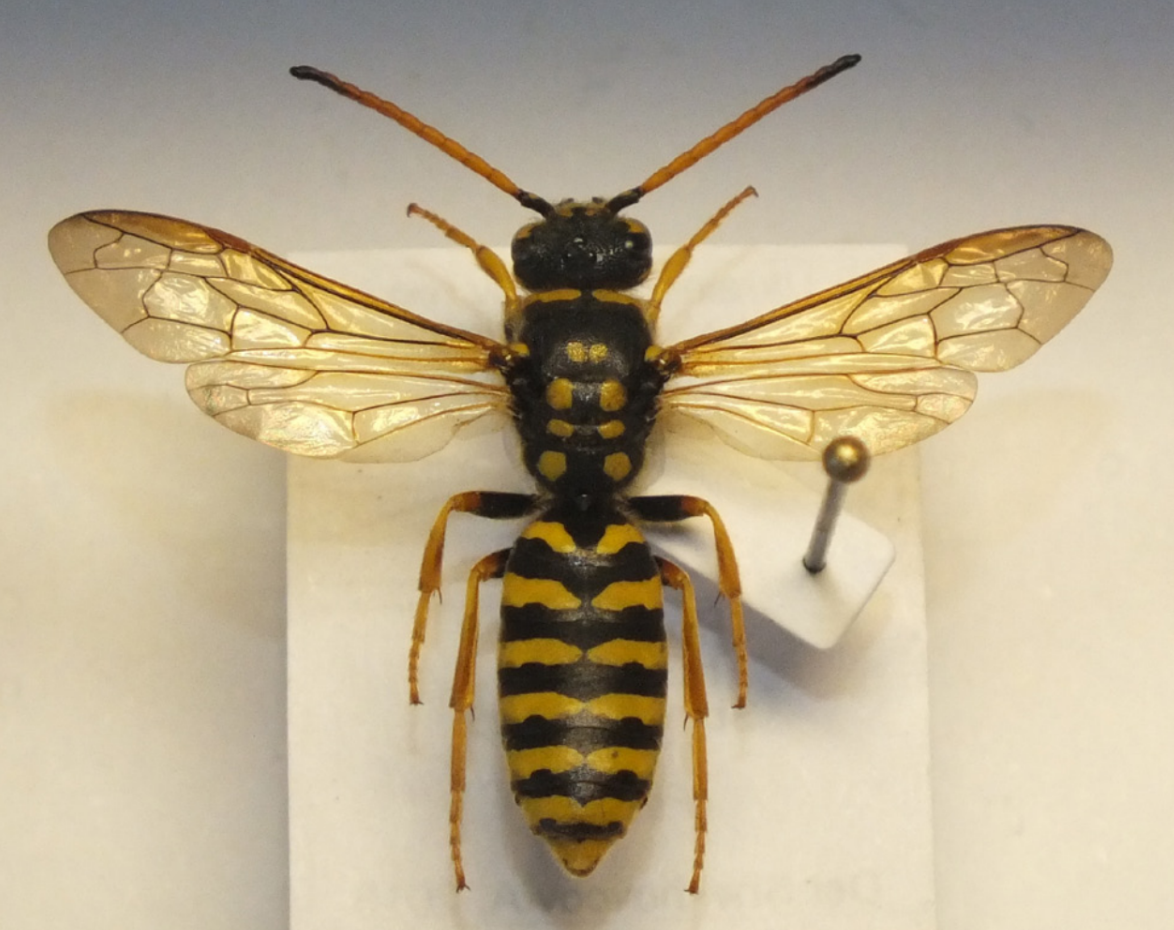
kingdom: Animalia
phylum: Arthropoda
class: Insecta
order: Hymenoptera
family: Masaridae
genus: Polochrum
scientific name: Polochrum repandum
